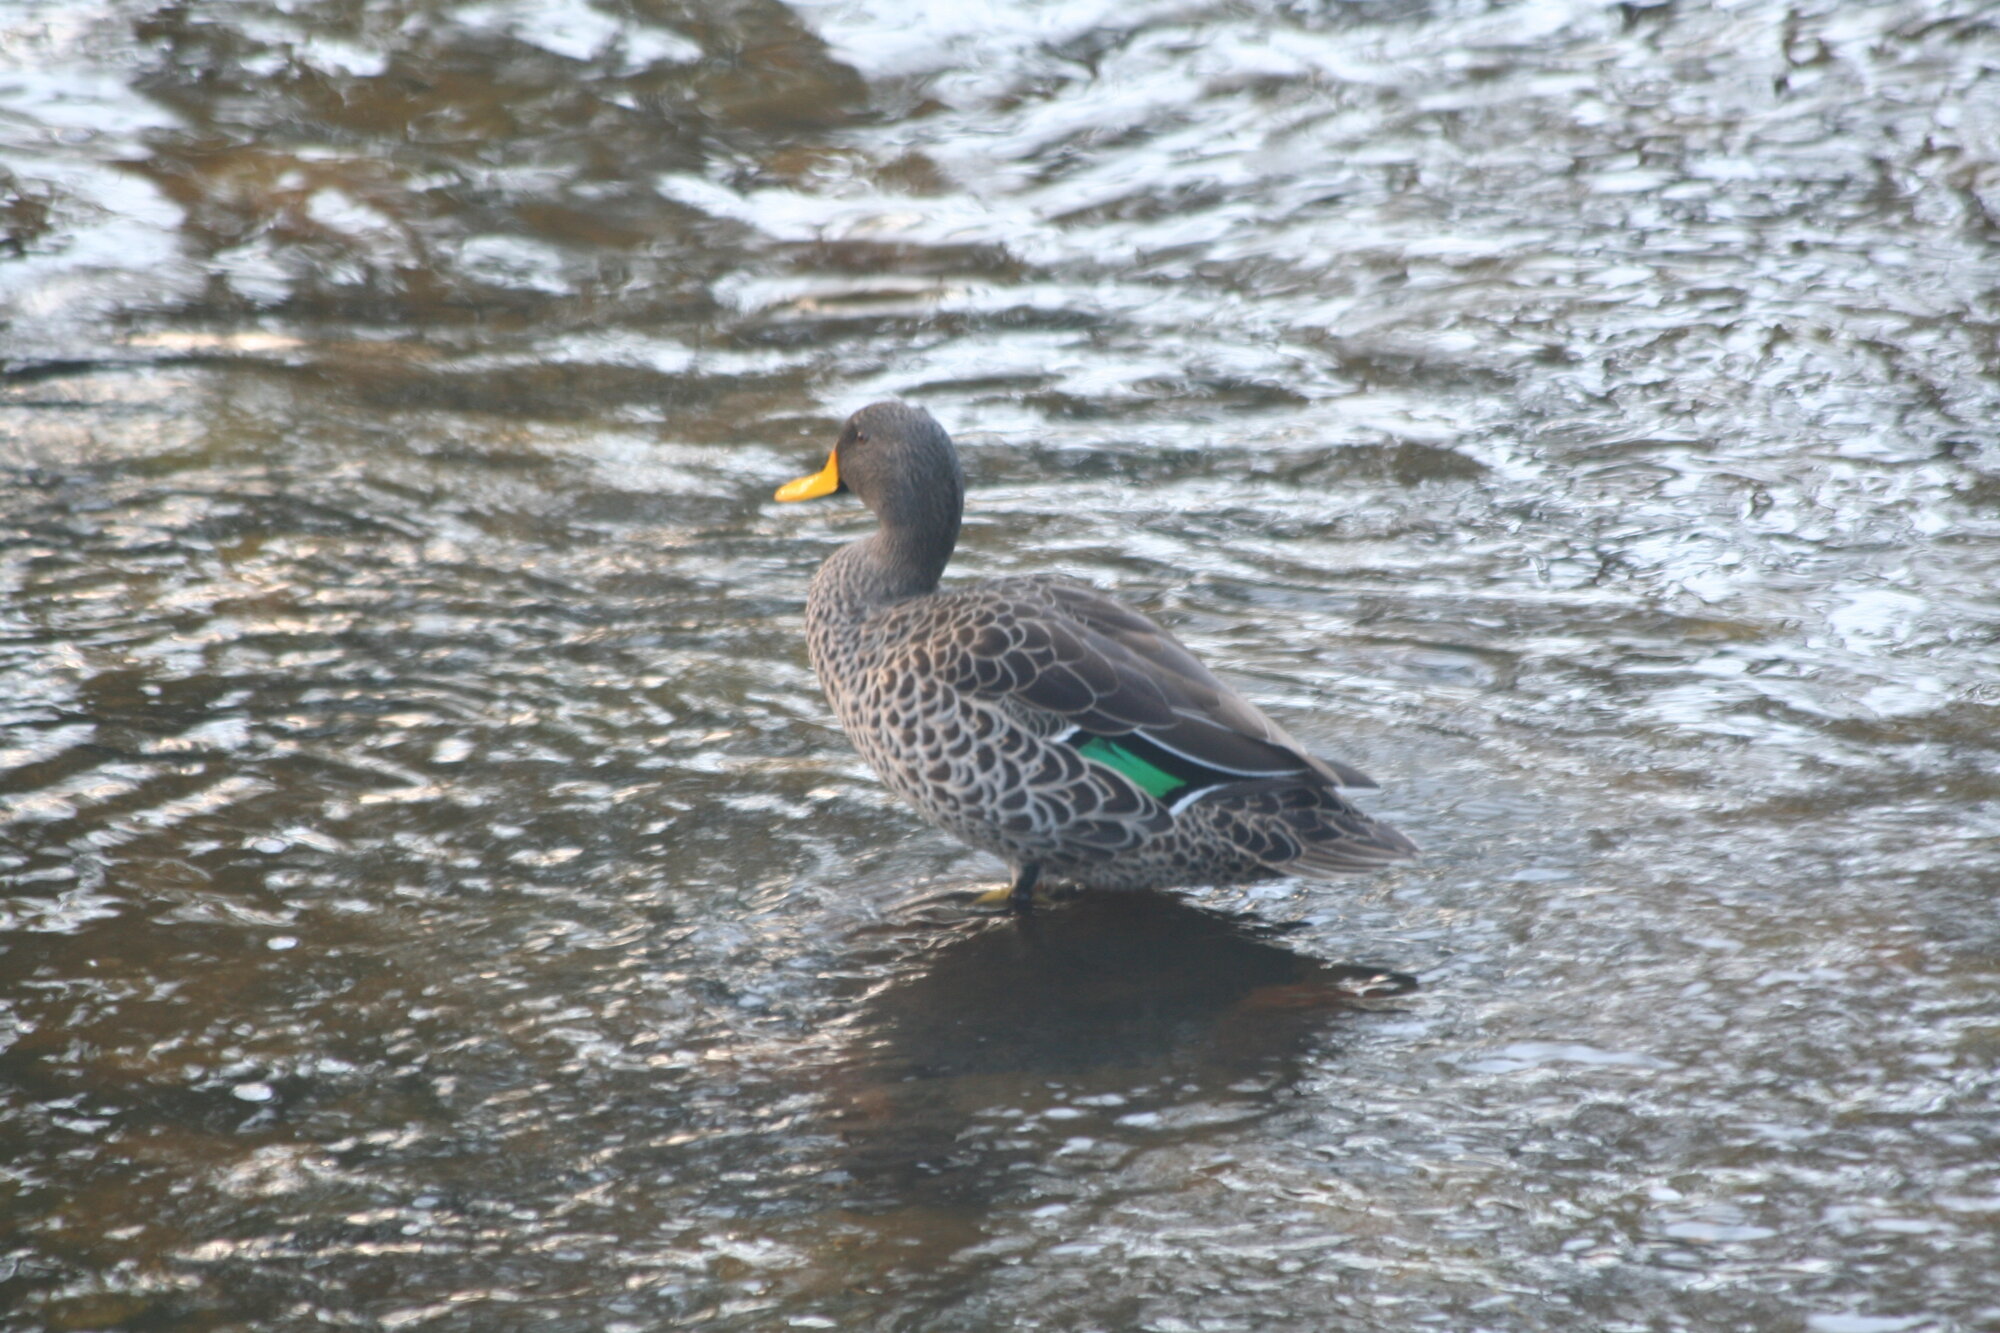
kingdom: Animalia
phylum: Chordata
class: Aves
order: Anseriformes
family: Anatidae
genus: Anas
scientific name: Anas undulata
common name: Yellow-billed duck
